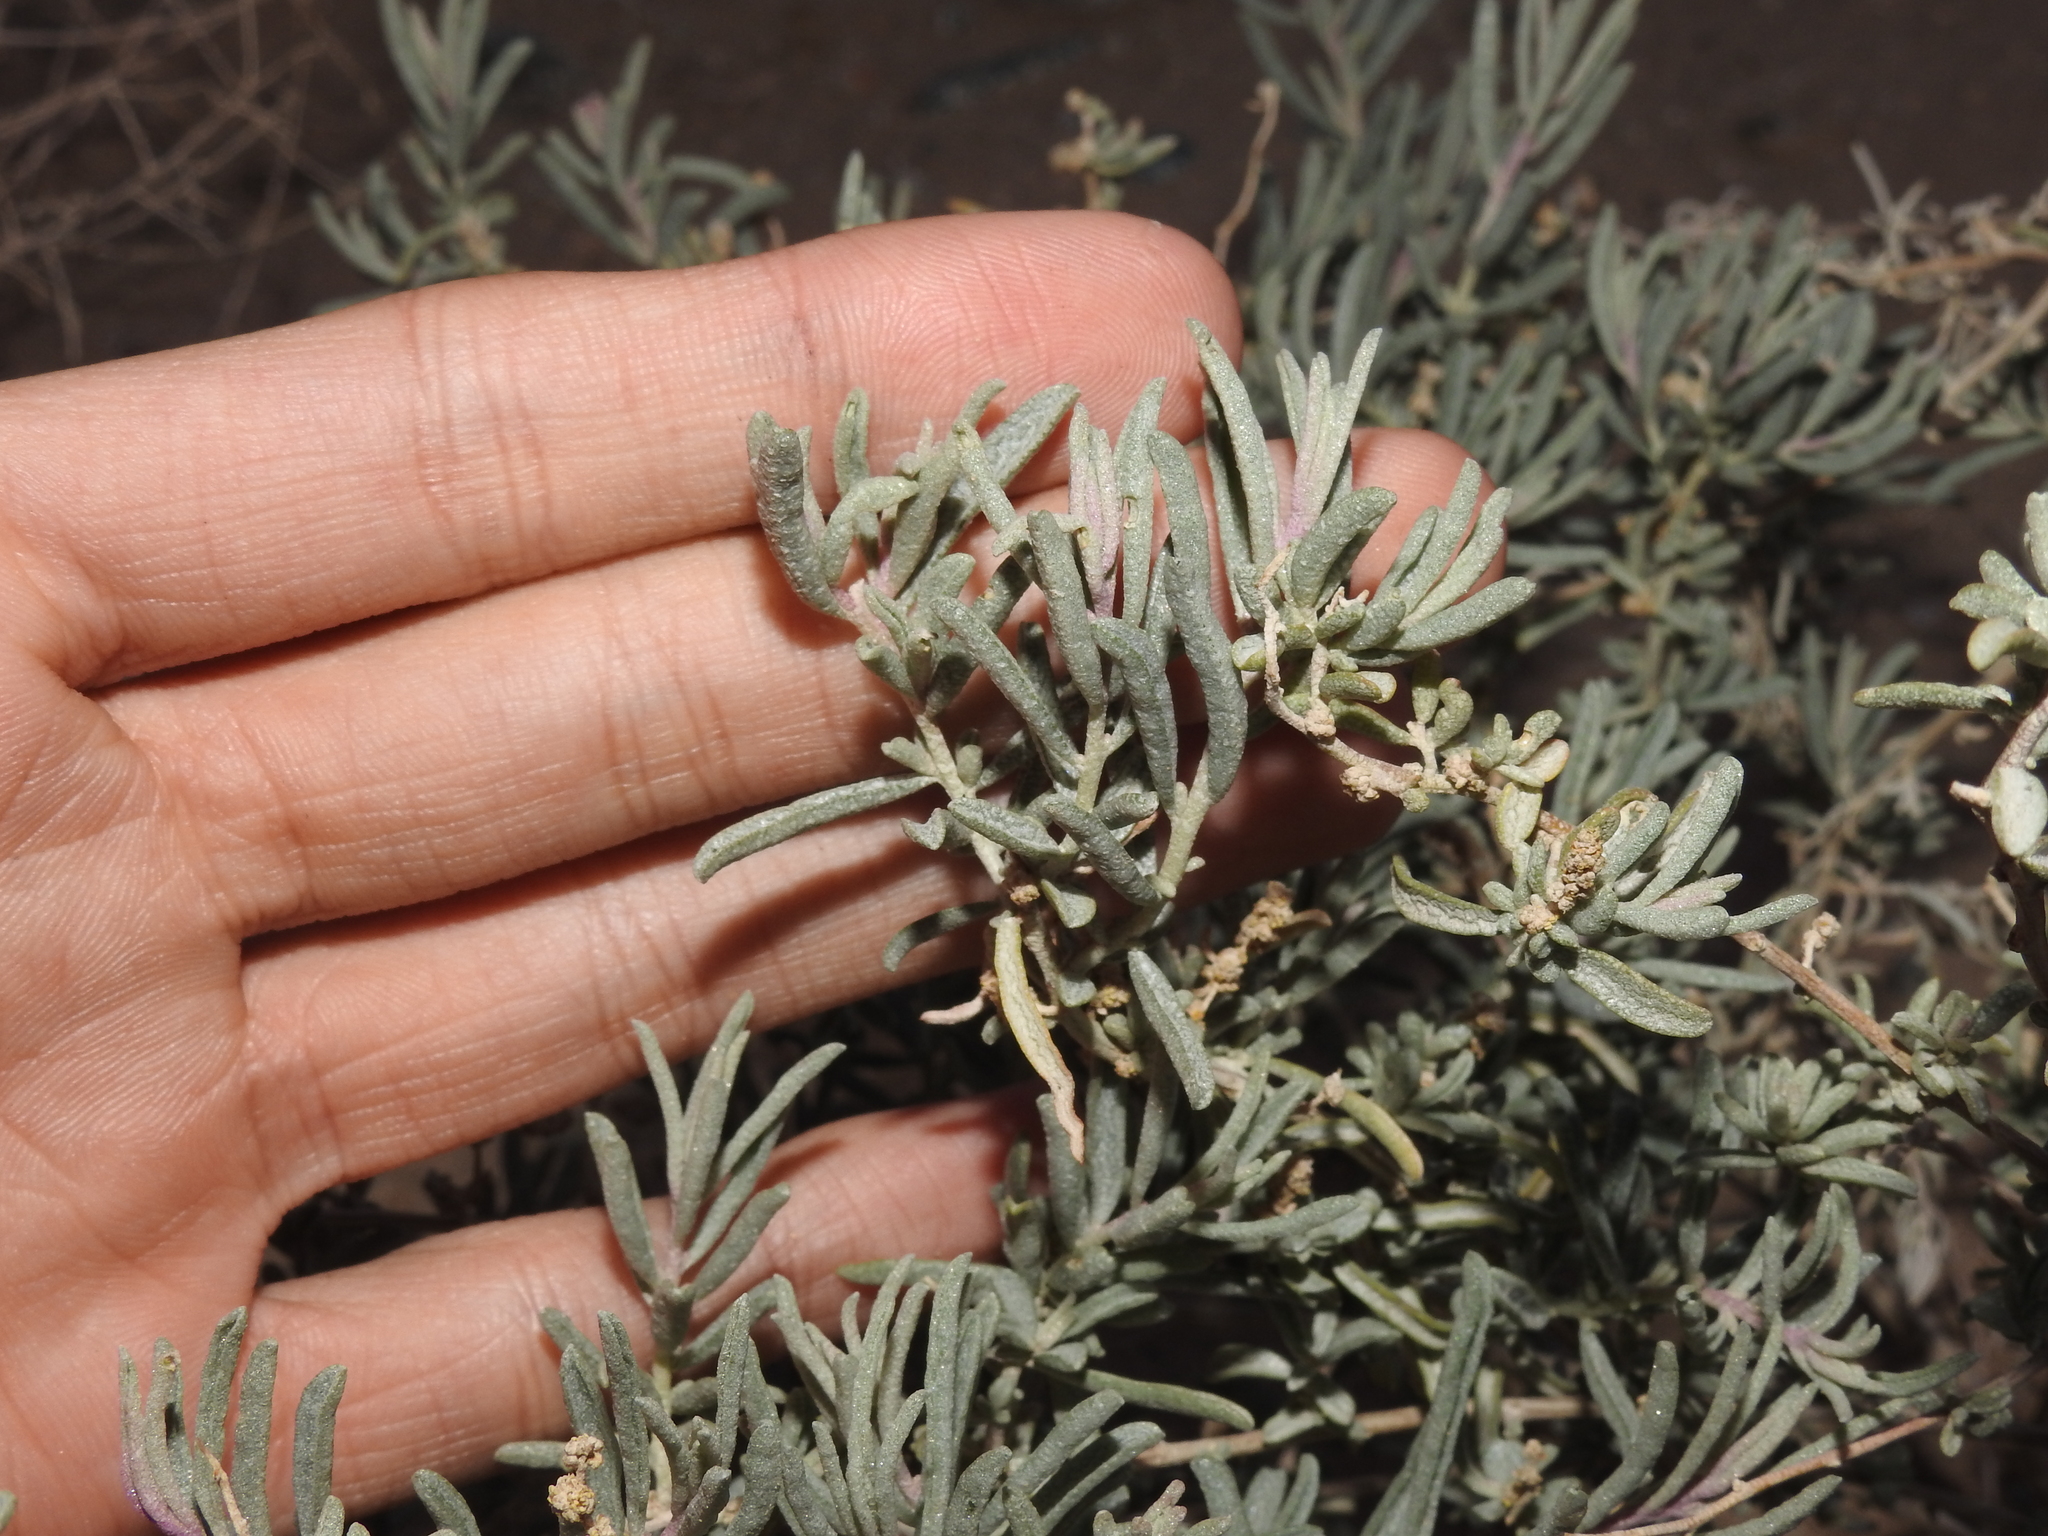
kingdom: Plantae
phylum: Tracheophyta
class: Magnoliopsida
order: Caryophyllales
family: Amaranthaceae
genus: Atriplex
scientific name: Atriplex canescens
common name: Four-wing saltbush
